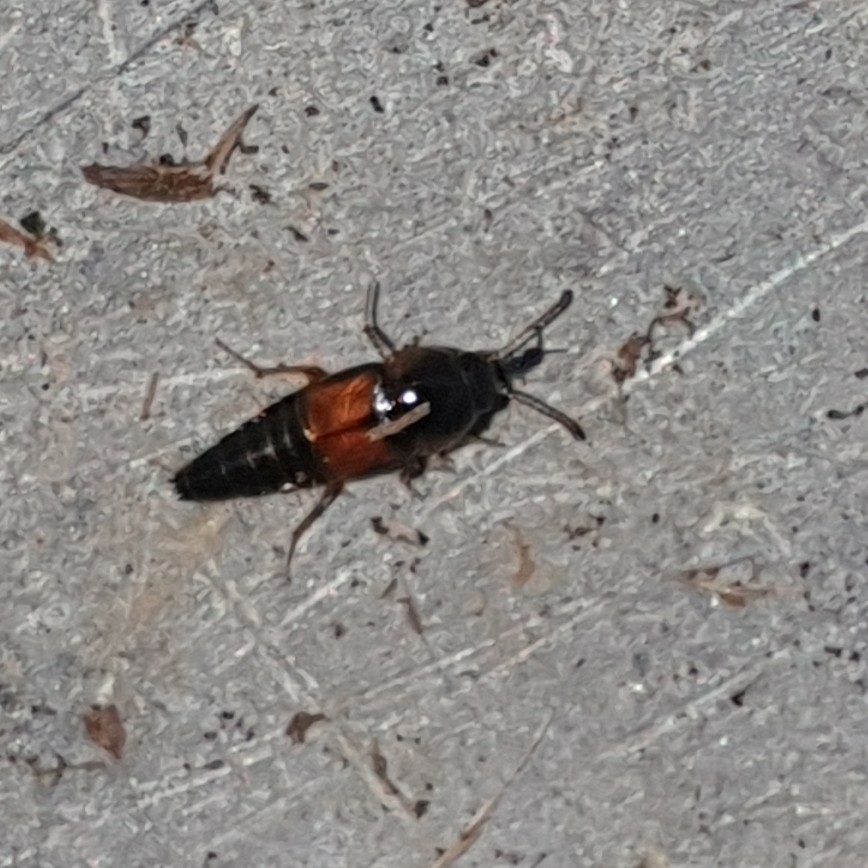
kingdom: Animalia
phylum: Arthropoda
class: Insecta
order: Coleoptera
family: Staphylinidae
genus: Tachyporus
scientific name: Tachyporus hypnorum
